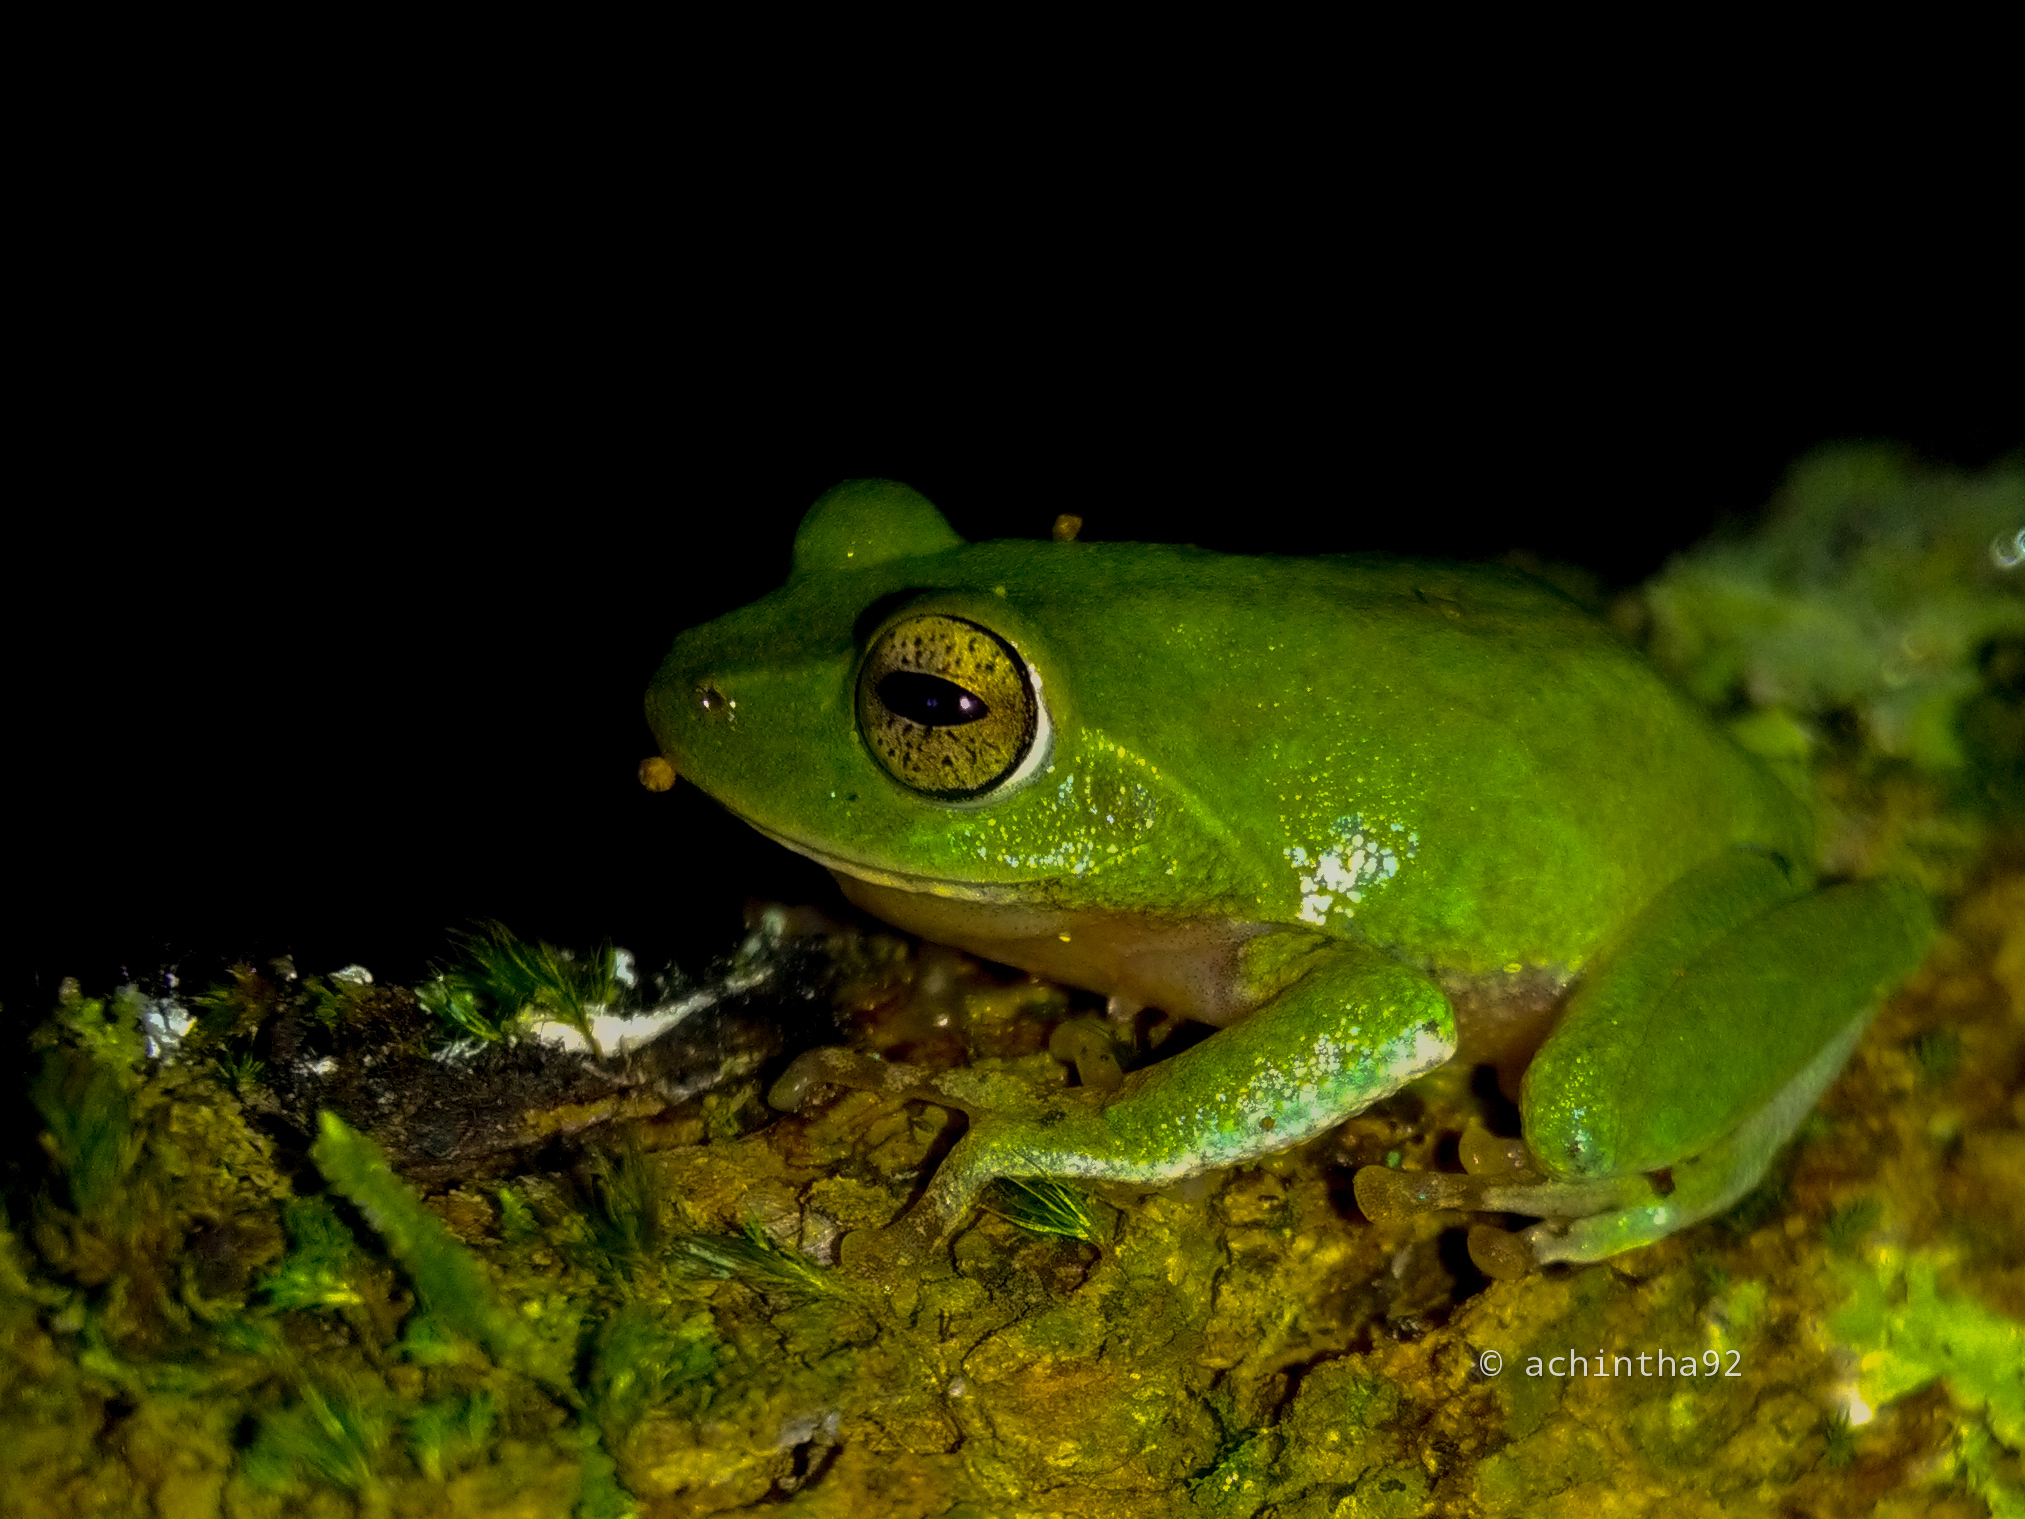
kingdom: Animalia
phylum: Chordata
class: Amphibia
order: Anura
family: Rhacophoridae
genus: Pseudophilautus
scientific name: Pseudophilautus viridis
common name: Dull-green shrub frog
